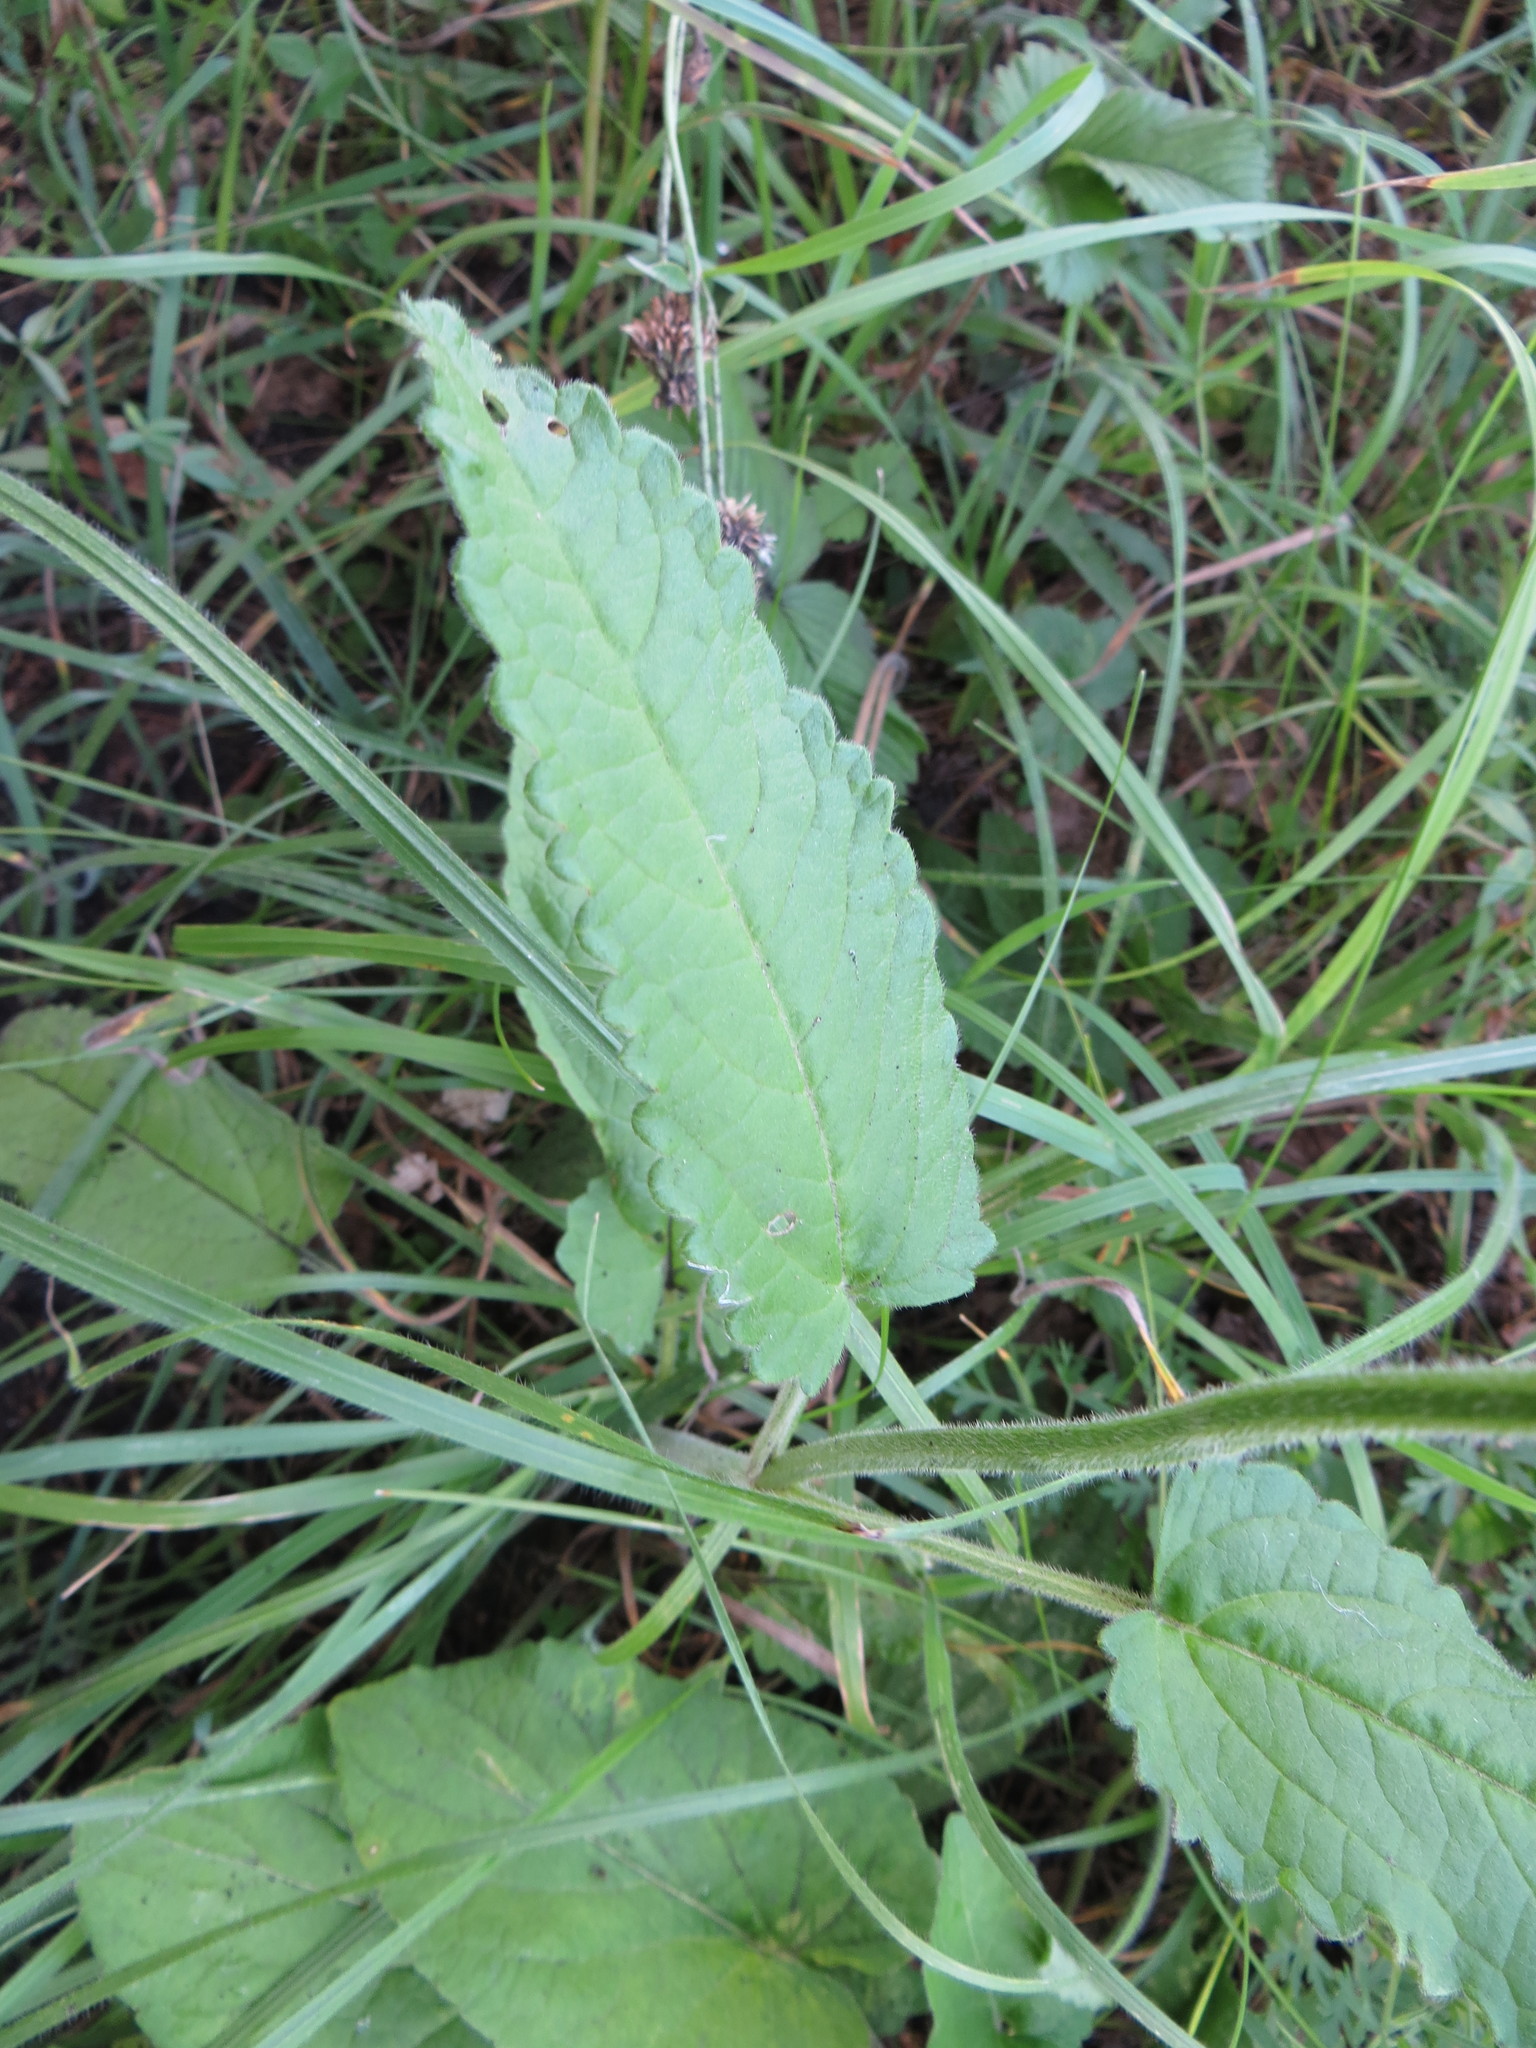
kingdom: Plantae
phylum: Tracheophyta
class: Magnoliopsida
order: Lamiales
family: Lamiaceae
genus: Betonica
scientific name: Betonica officinalis
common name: Bishop's-wort
